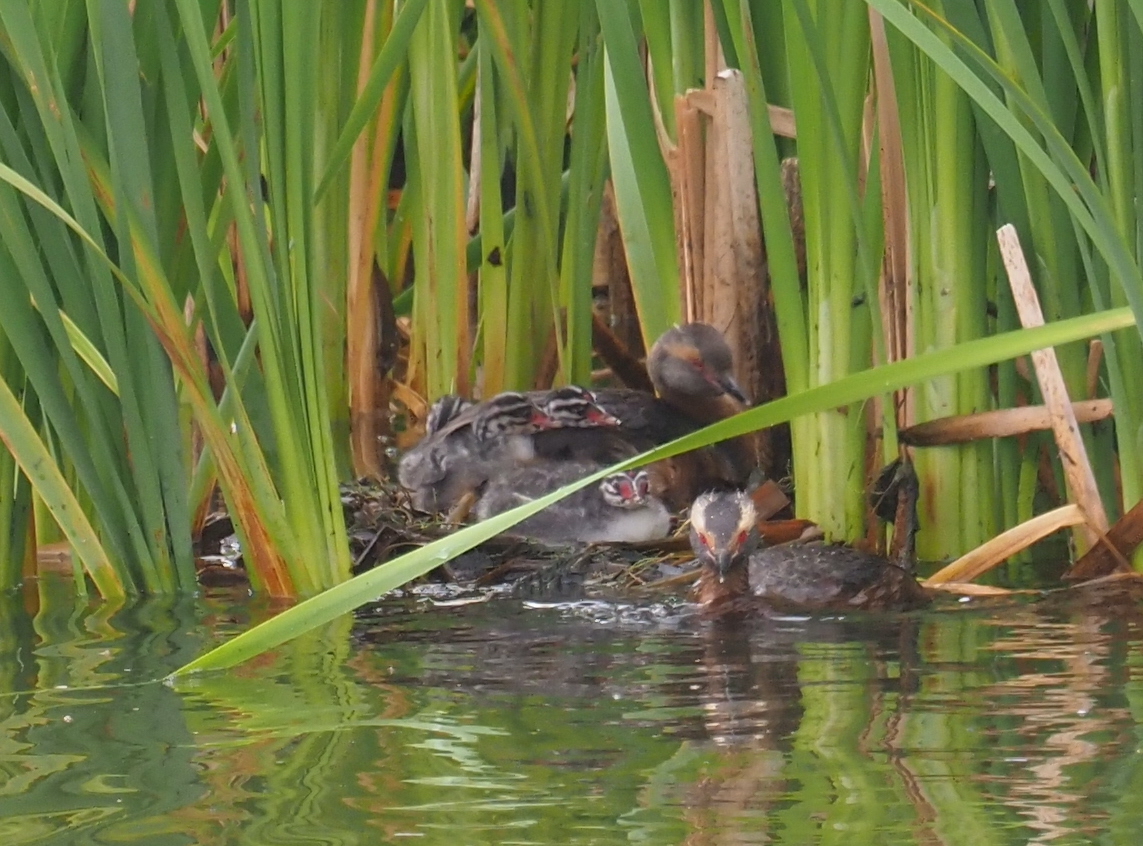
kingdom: Animalia
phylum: Chordata
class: Aves
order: Podicipediformes
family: Podicipedidae
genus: Podiceps
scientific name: Podiceps auritus
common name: Horned grebe
